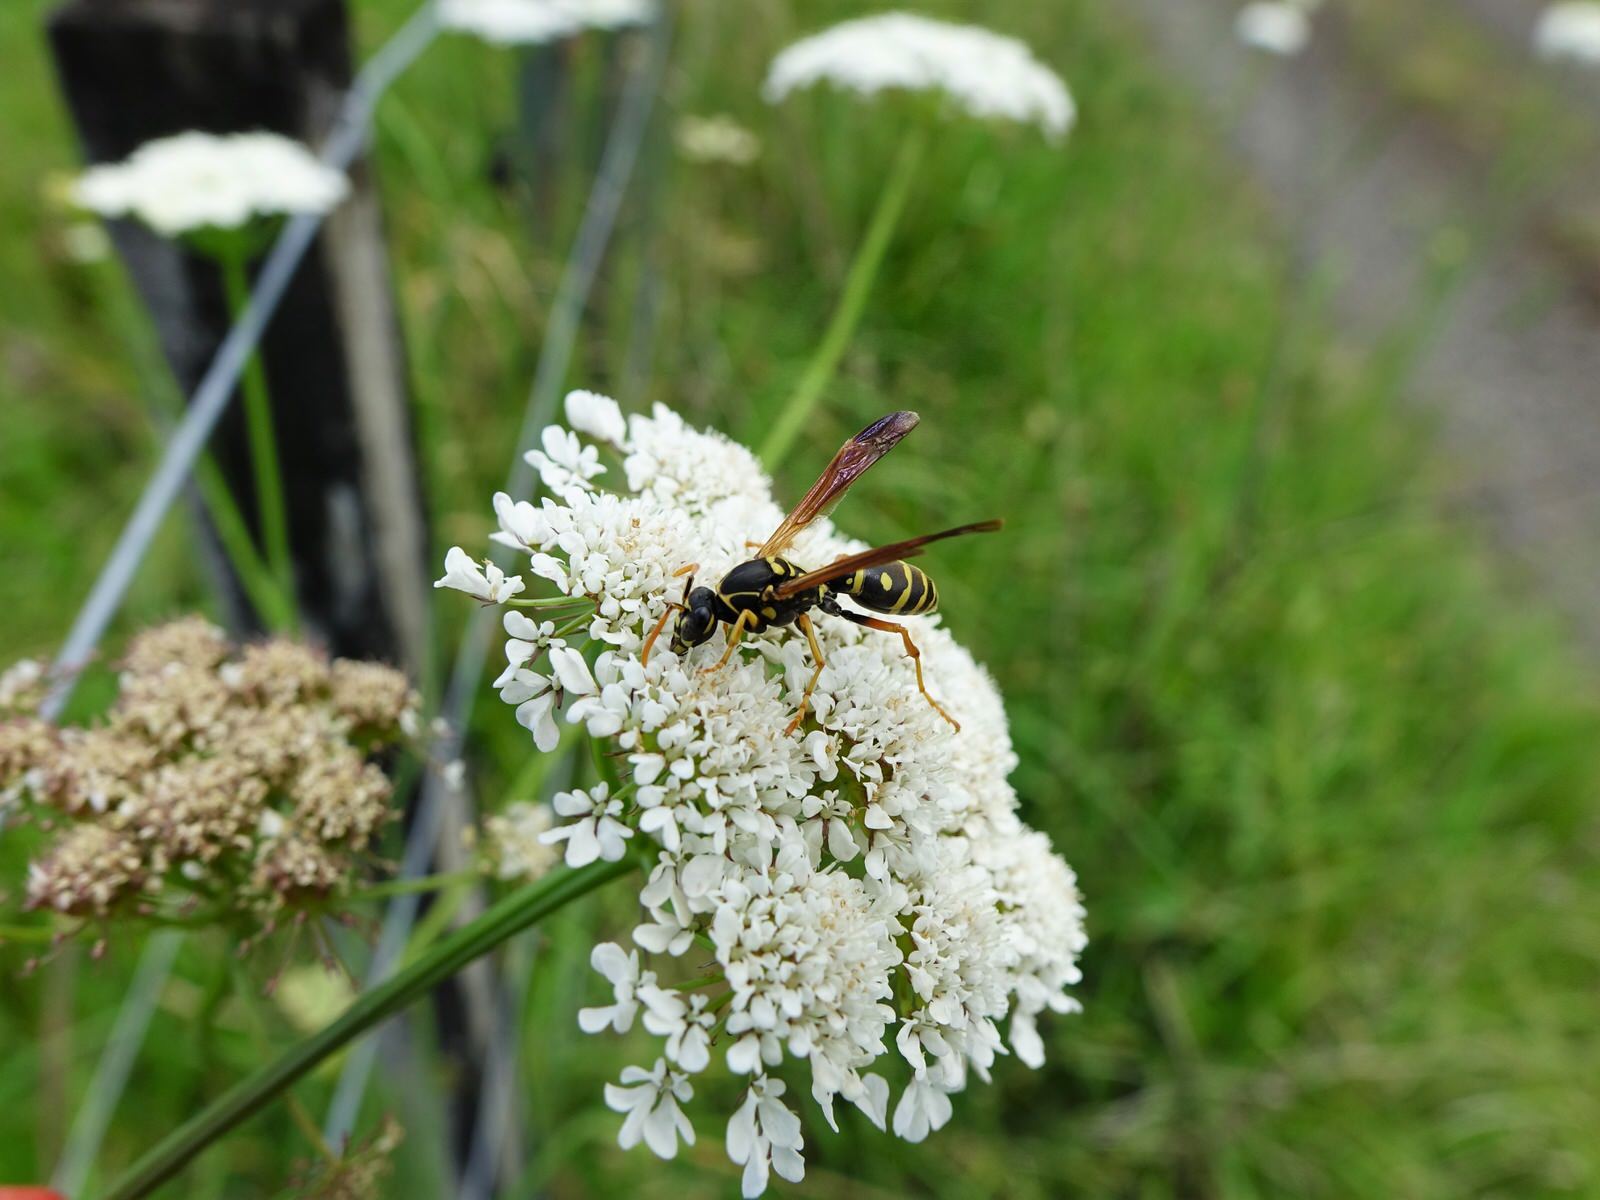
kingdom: Animalia
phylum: Arthropoda
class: Insecta
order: Hymenoptera
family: Eumenidae
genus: Polistes
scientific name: Polistes chinensis
